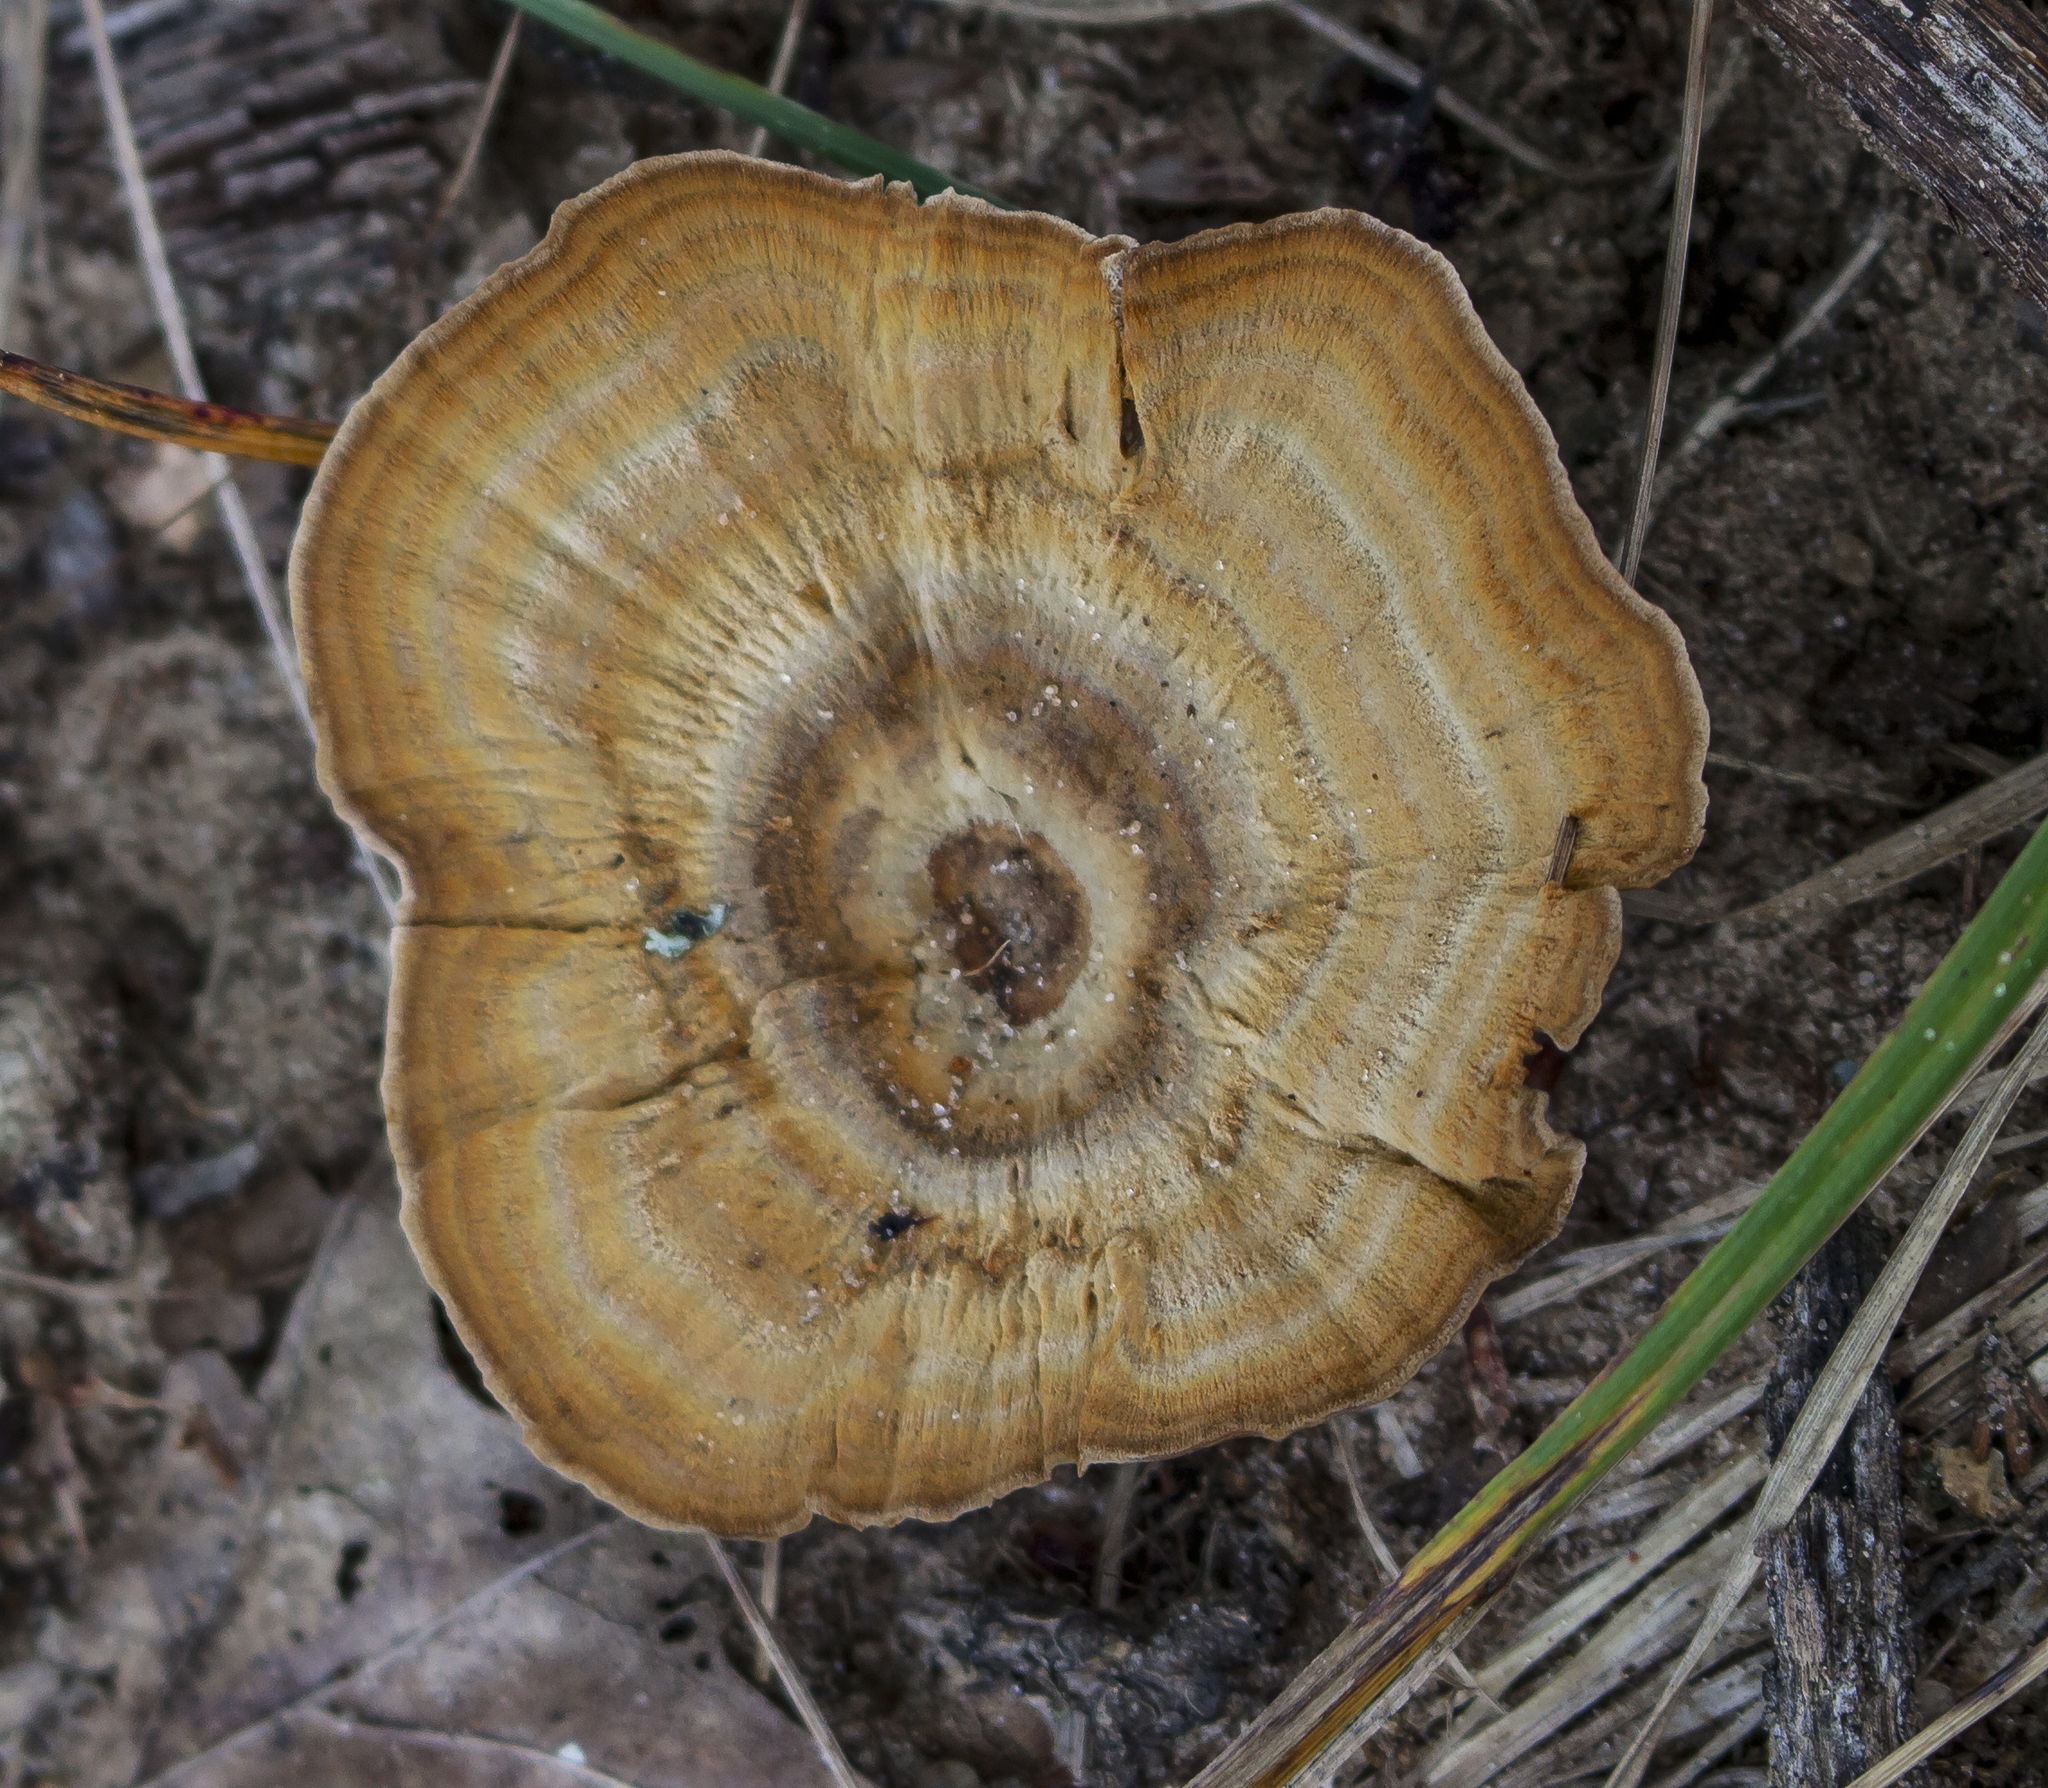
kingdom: Fungi
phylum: Basidiomycota
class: Agaricomycetes
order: Hymenochaetales
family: Hymenochaetaceae
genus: Coltricia
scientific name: Coltricia perennis
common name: Tiger's eye
